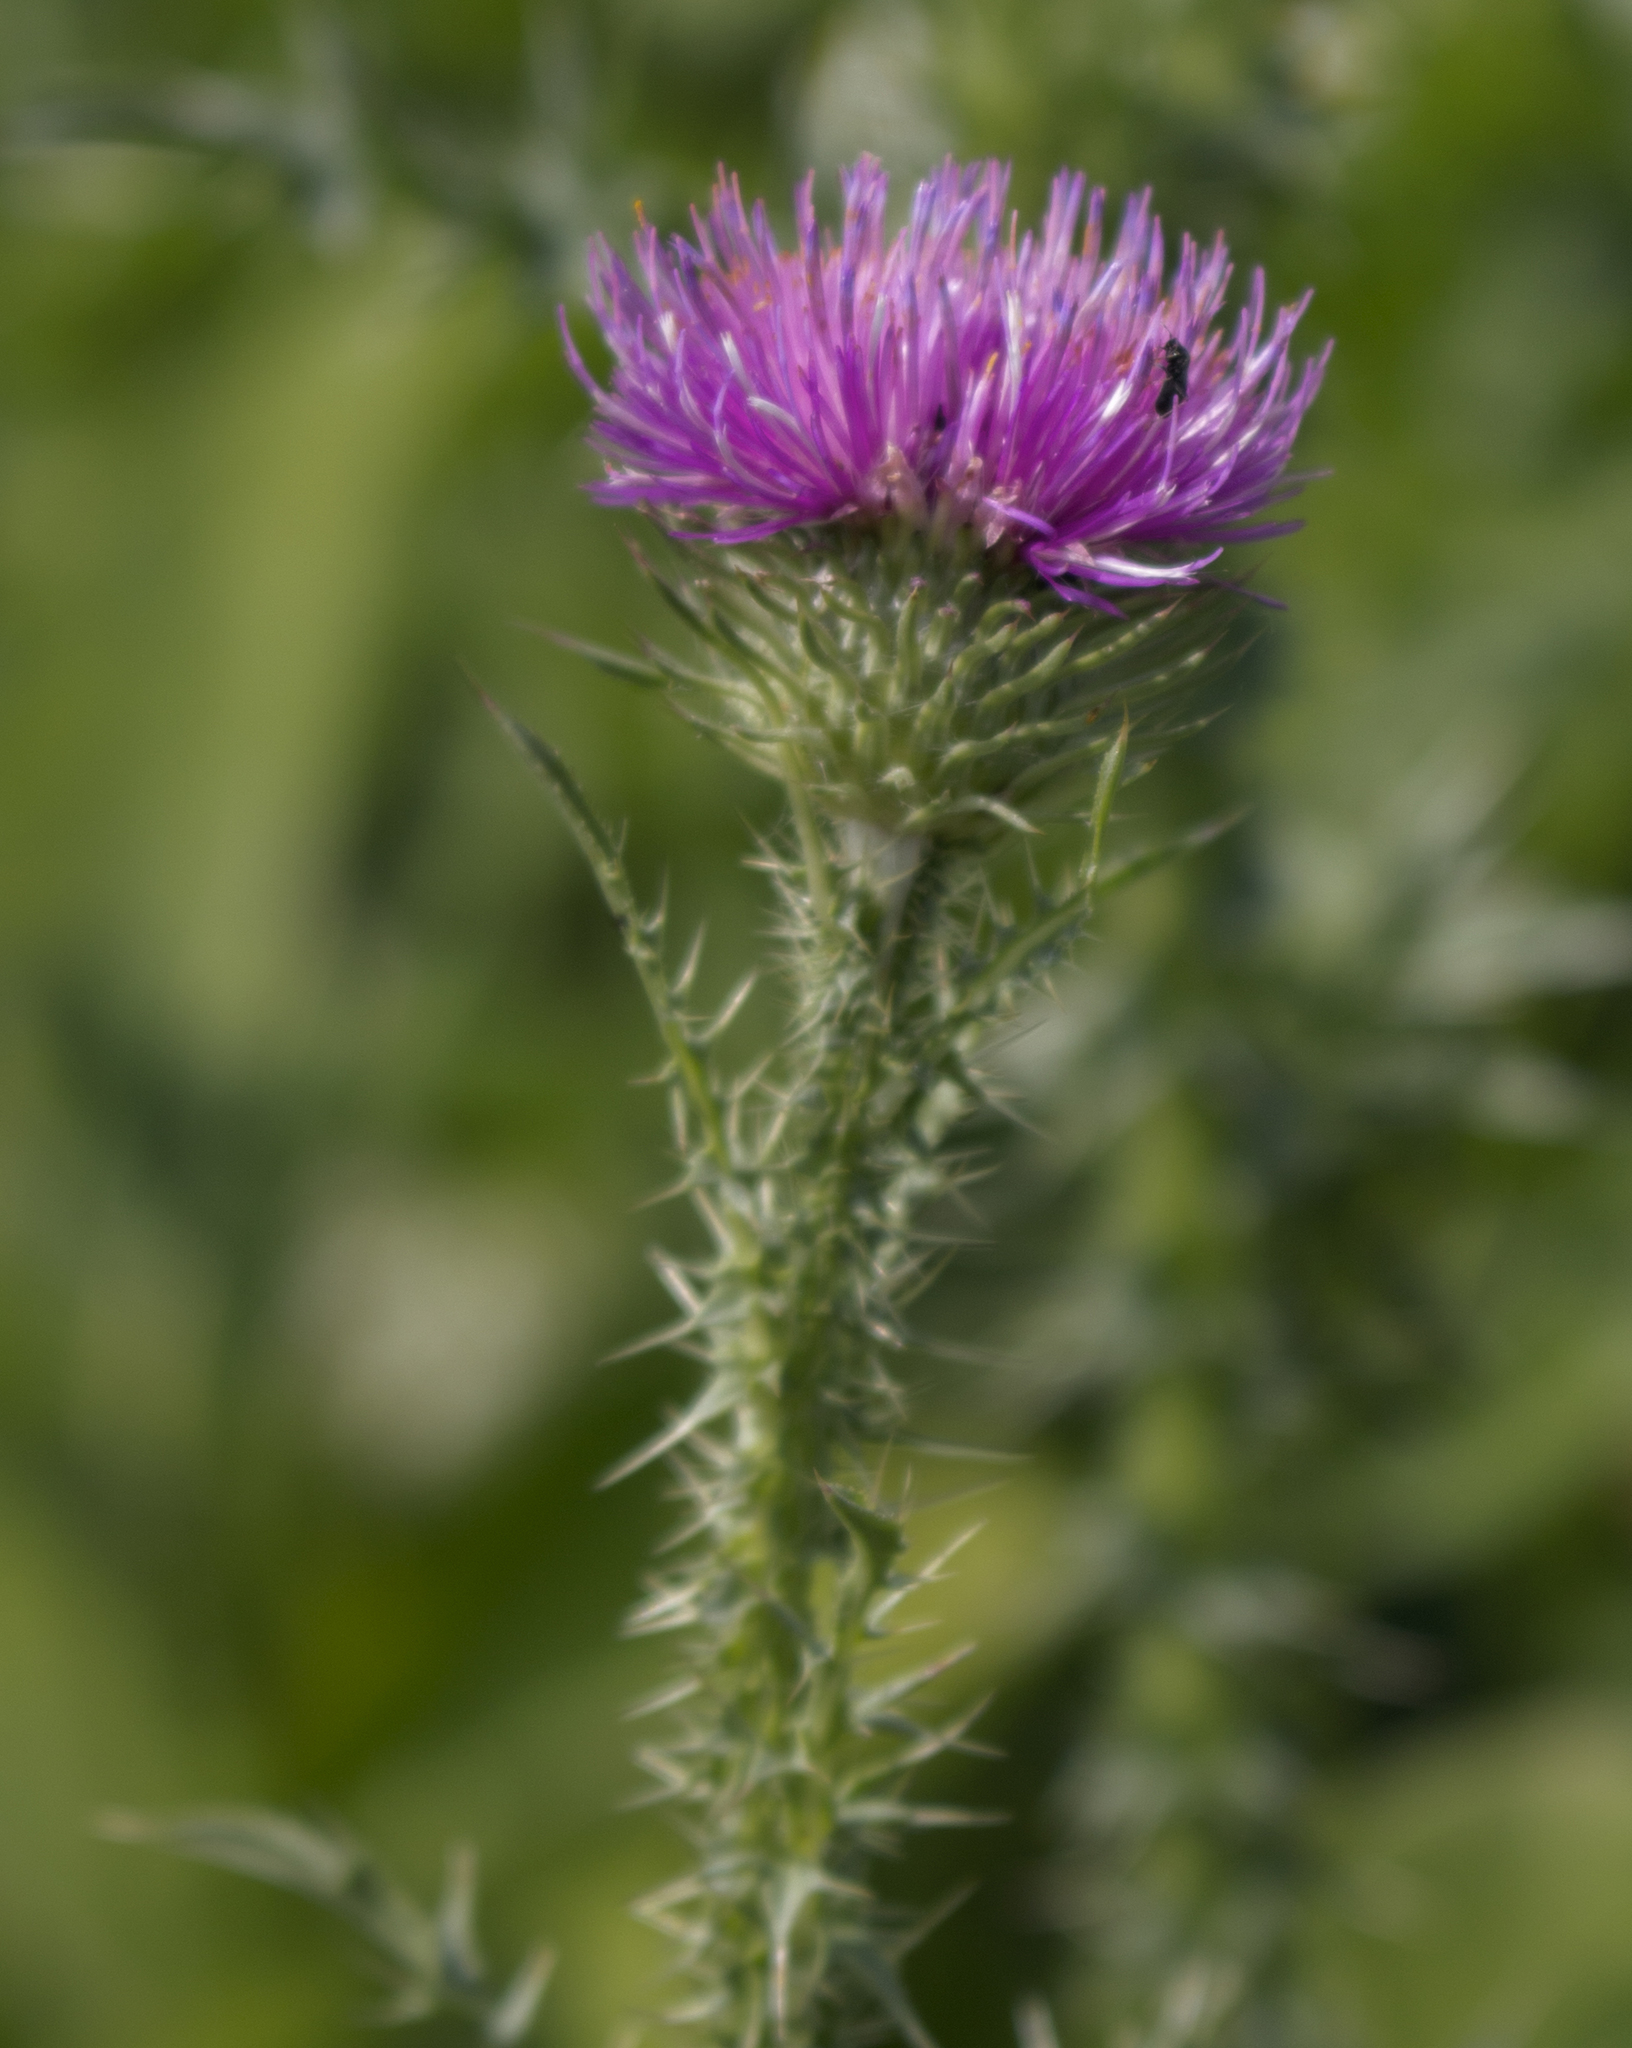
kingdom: Plantae
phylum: Tracheophyta
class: Magnoliopsida
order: Asterales
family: Asteraceae
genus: Carduus
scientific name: Carduus acanthoides
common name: Plumeless thistle
